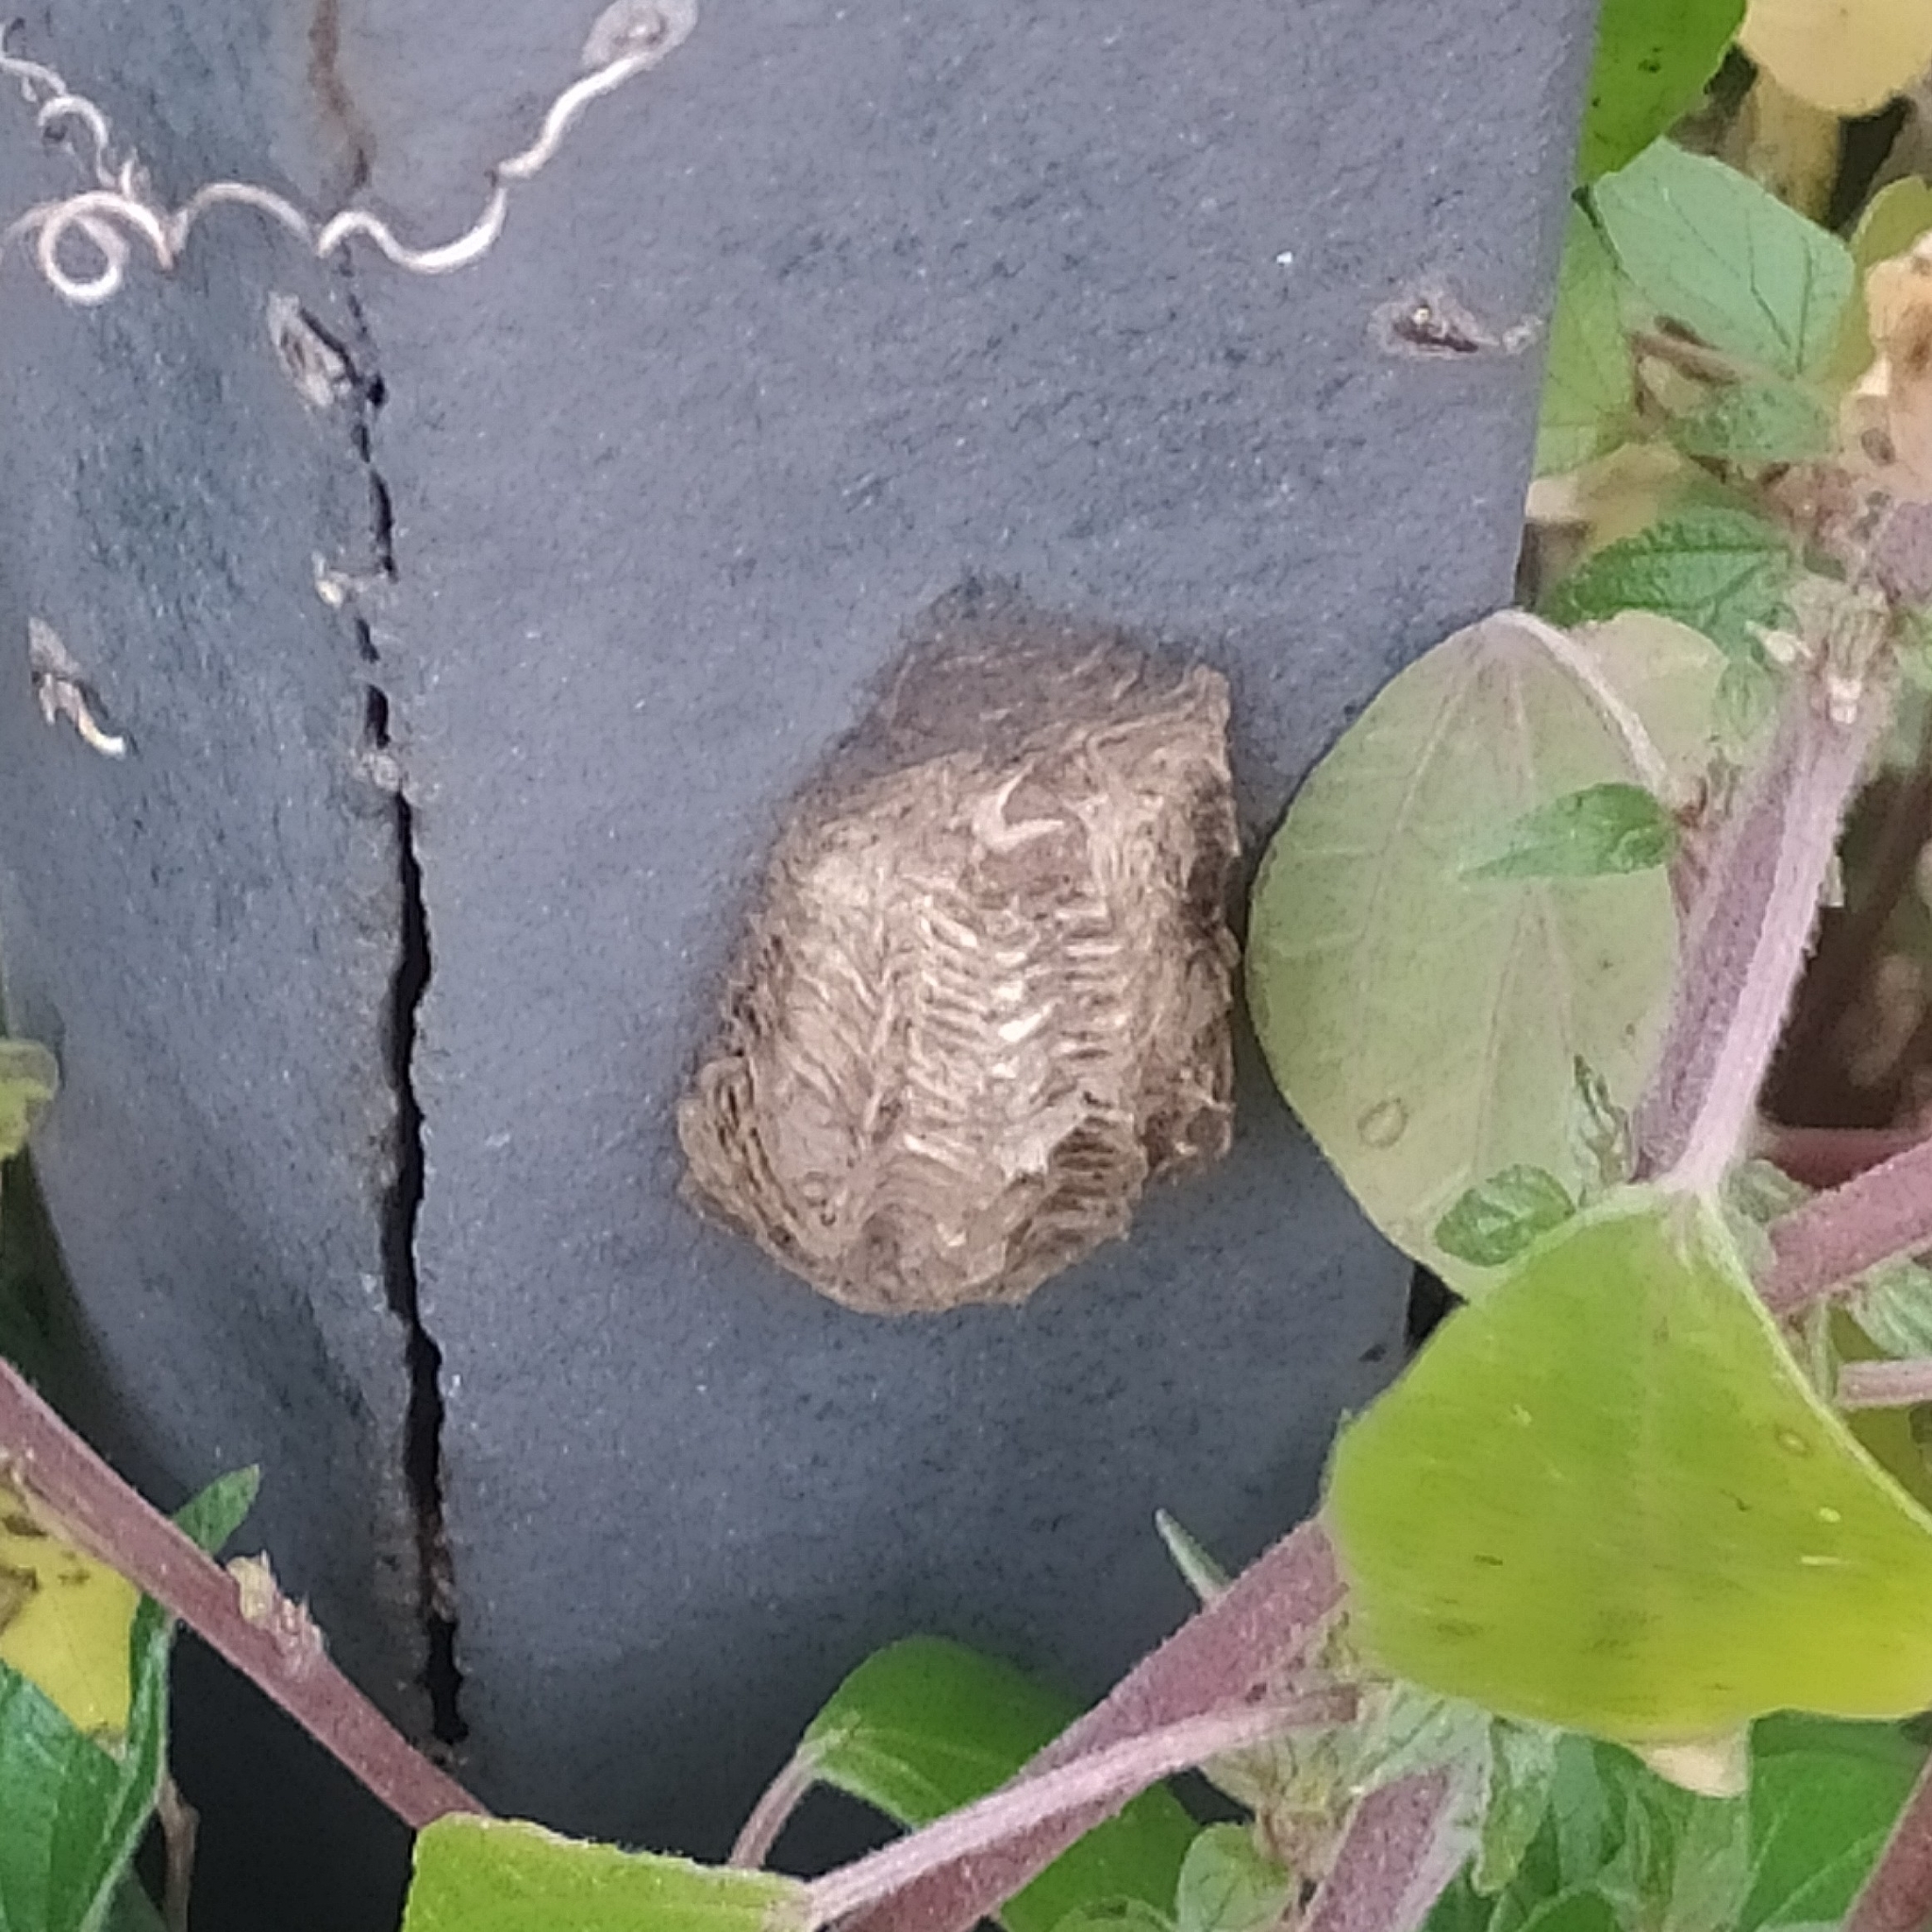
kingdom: Animalia
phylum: Arthropoda
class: Insecta
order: Mantodea
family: Mantidae
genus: Mantis
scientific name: Mantis religiosa
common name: Praying mantis
